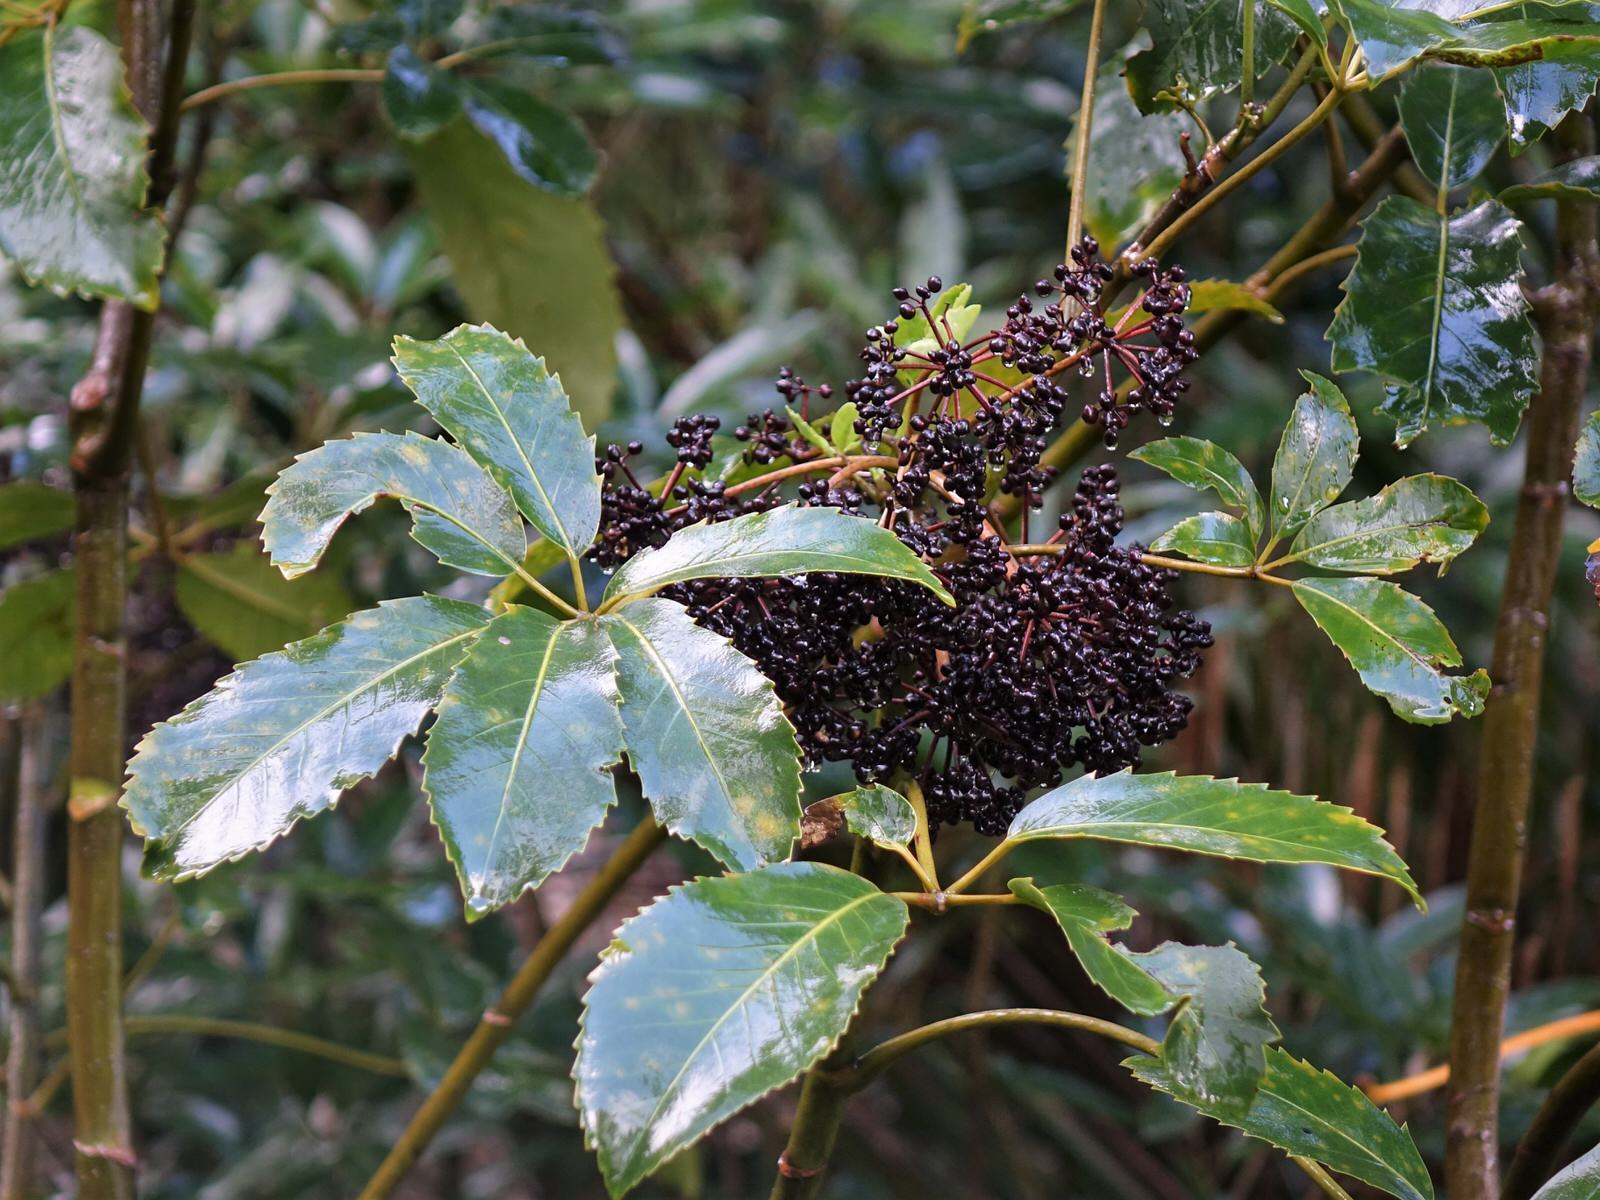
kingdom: Plantae
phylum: Tracheophyta
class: Magnoliopsida
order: Apiales
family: Araliaceae
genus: Neopanax
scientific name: Neopanax arboreus
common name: Five-fingers
